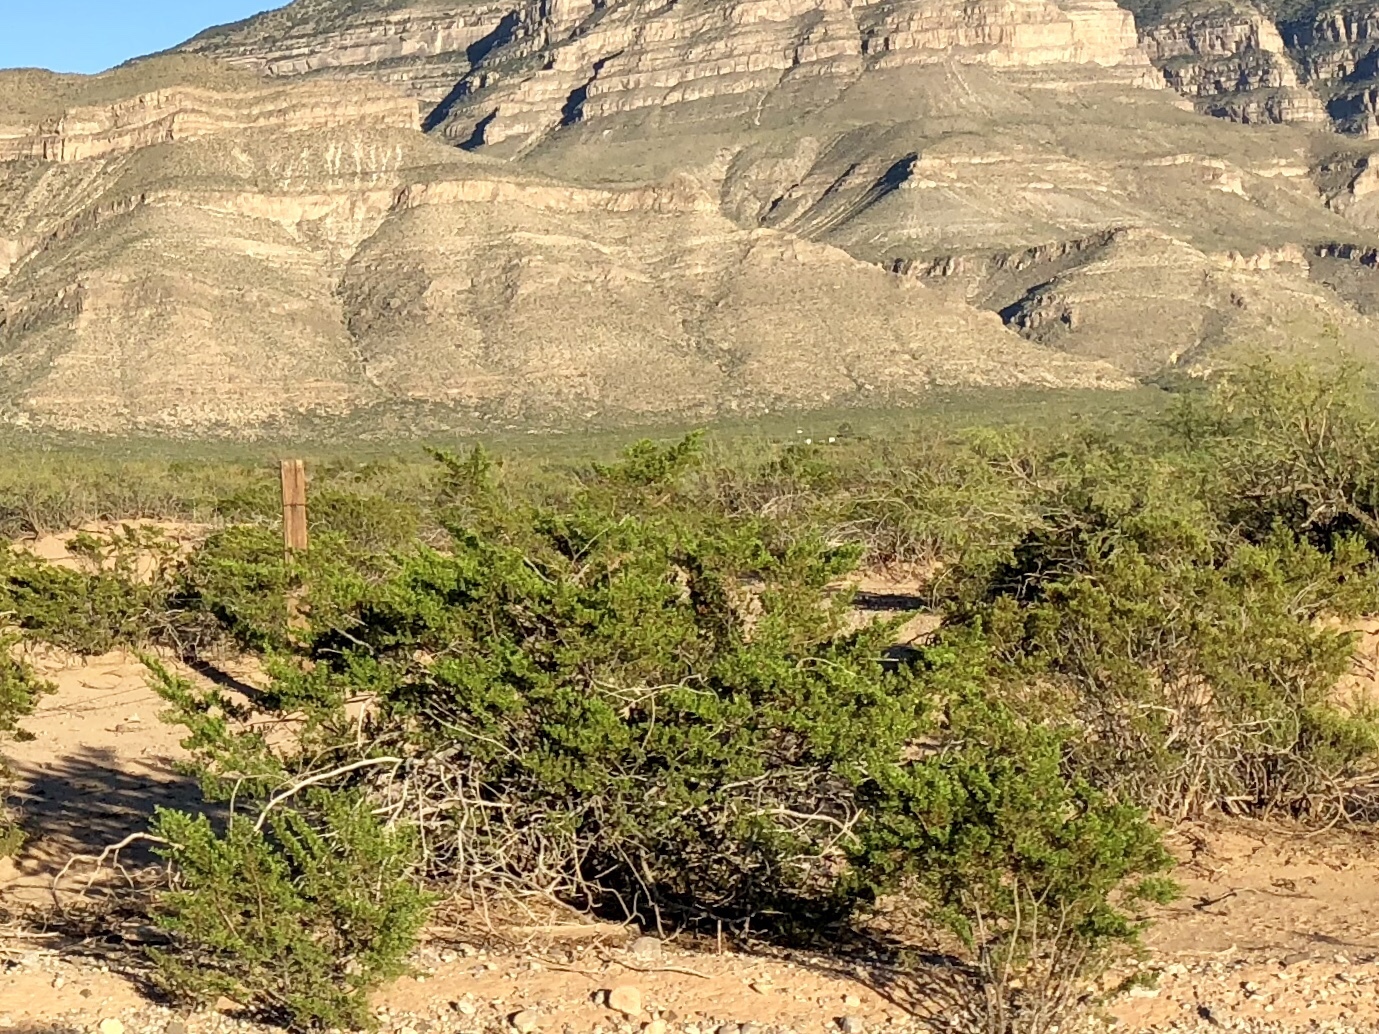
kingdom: Plantae
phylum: Tracheophyta
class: Magnoliopsida
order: Zygophyllales
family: Zygophyllaceae
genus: Larrea
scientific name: Larrea tridentata
